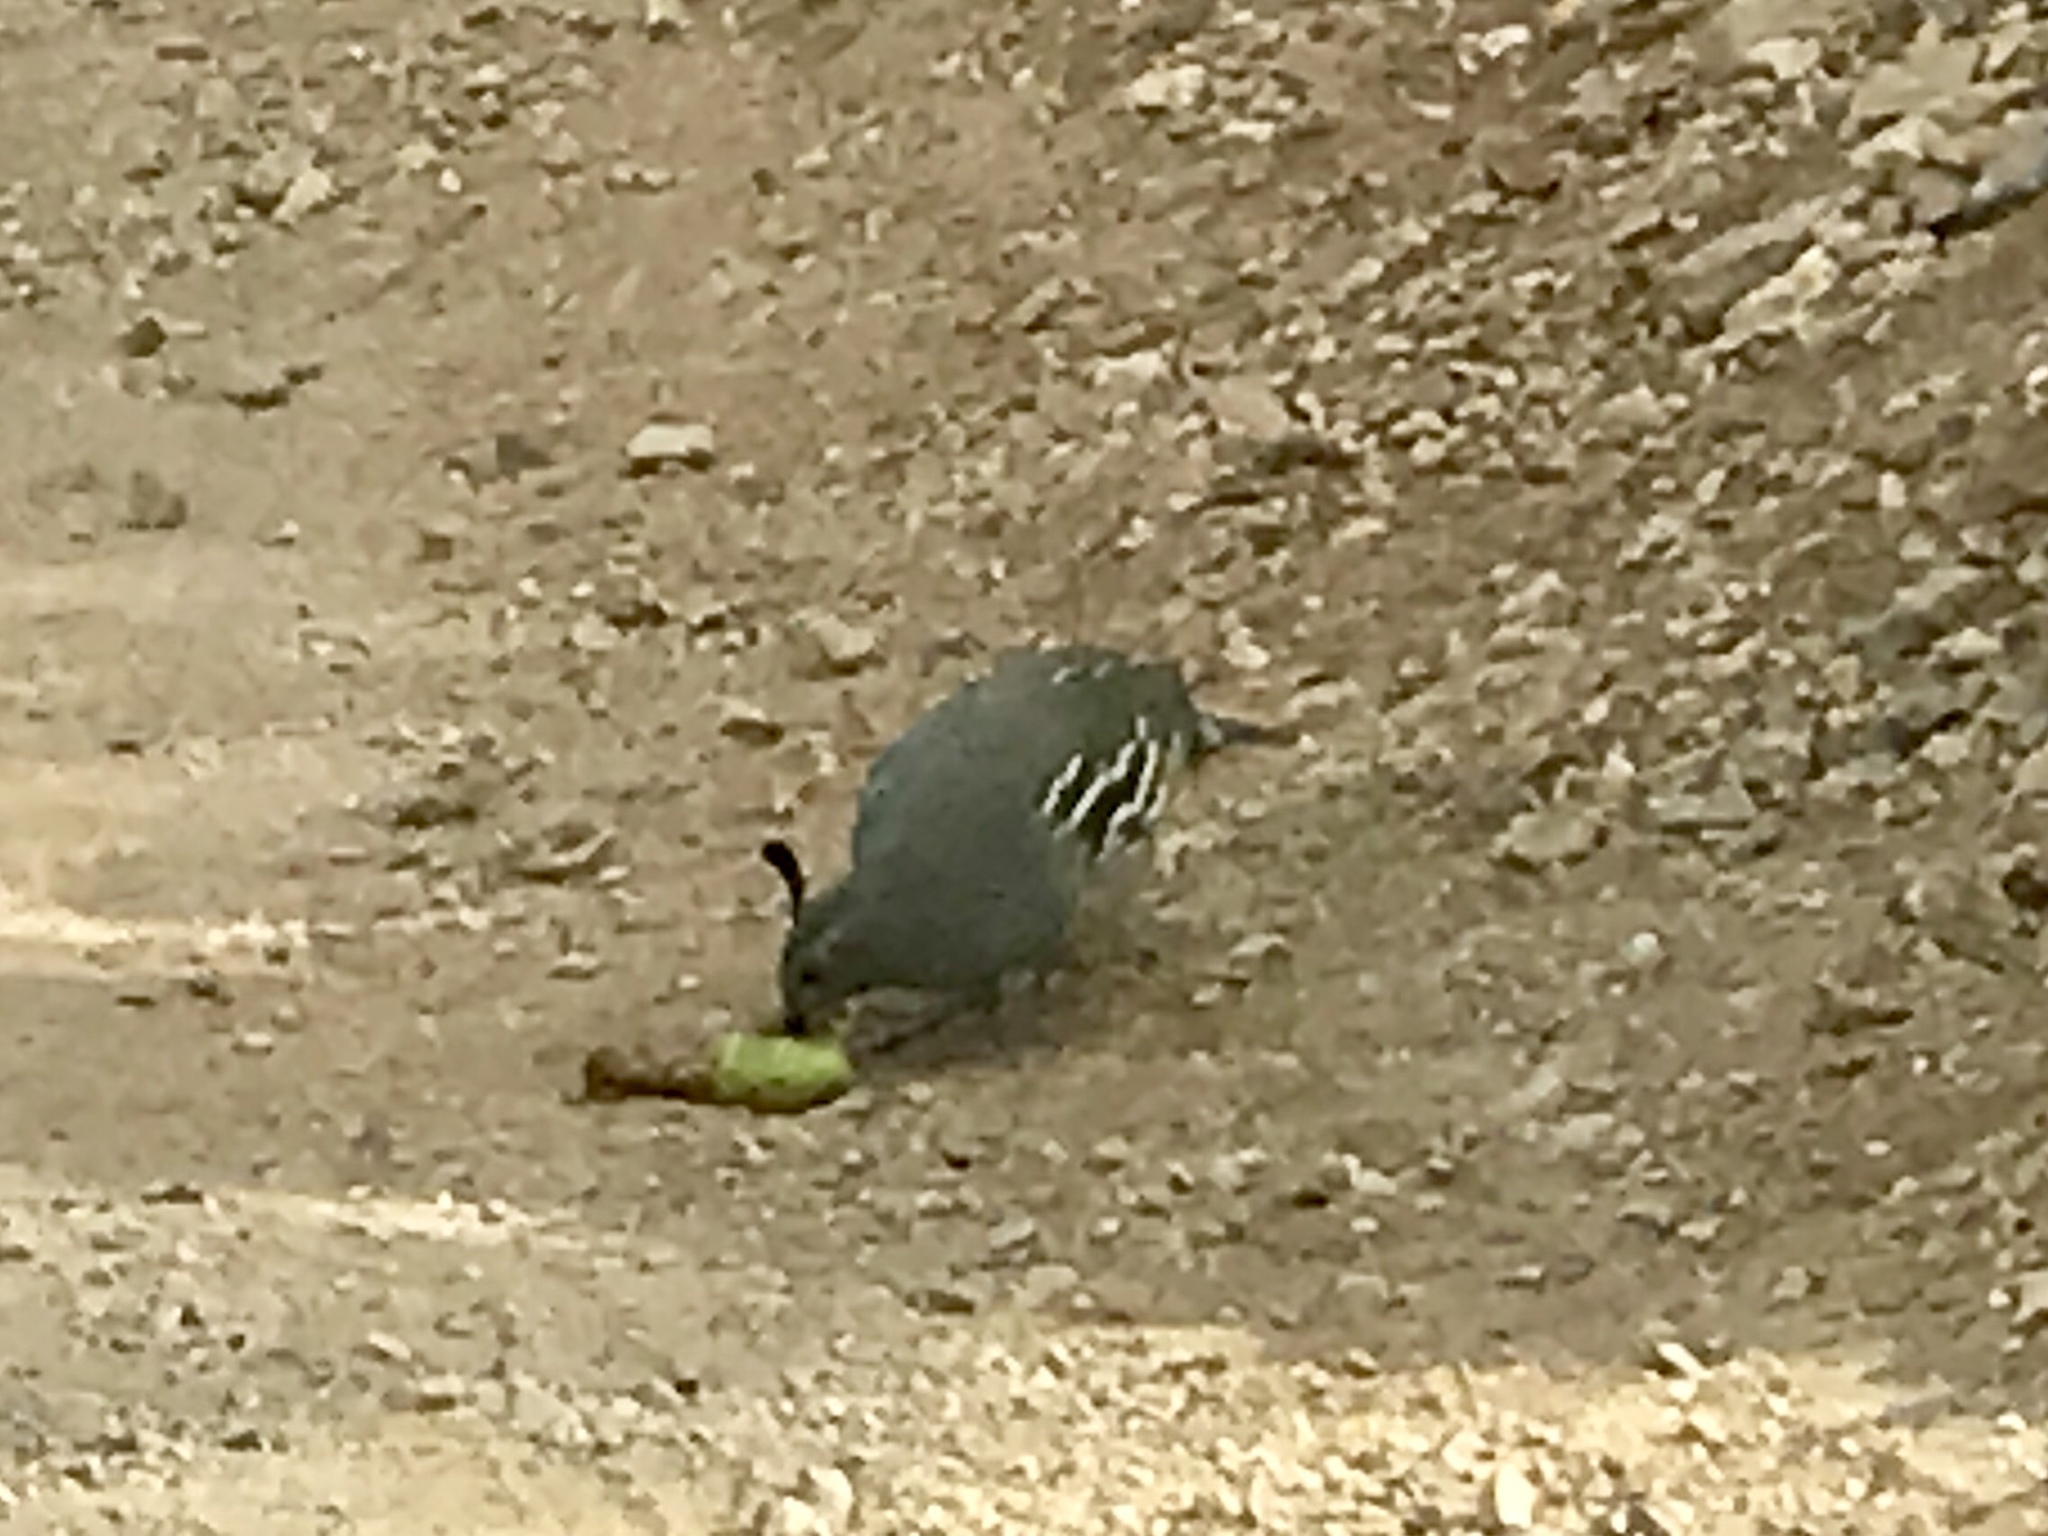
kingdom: Animalia
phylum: Chordata
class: Aves
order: Galliformes
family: Odontophoridae
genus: Callipepla
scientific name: Callipepla gambelii
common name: Gambel's quail
